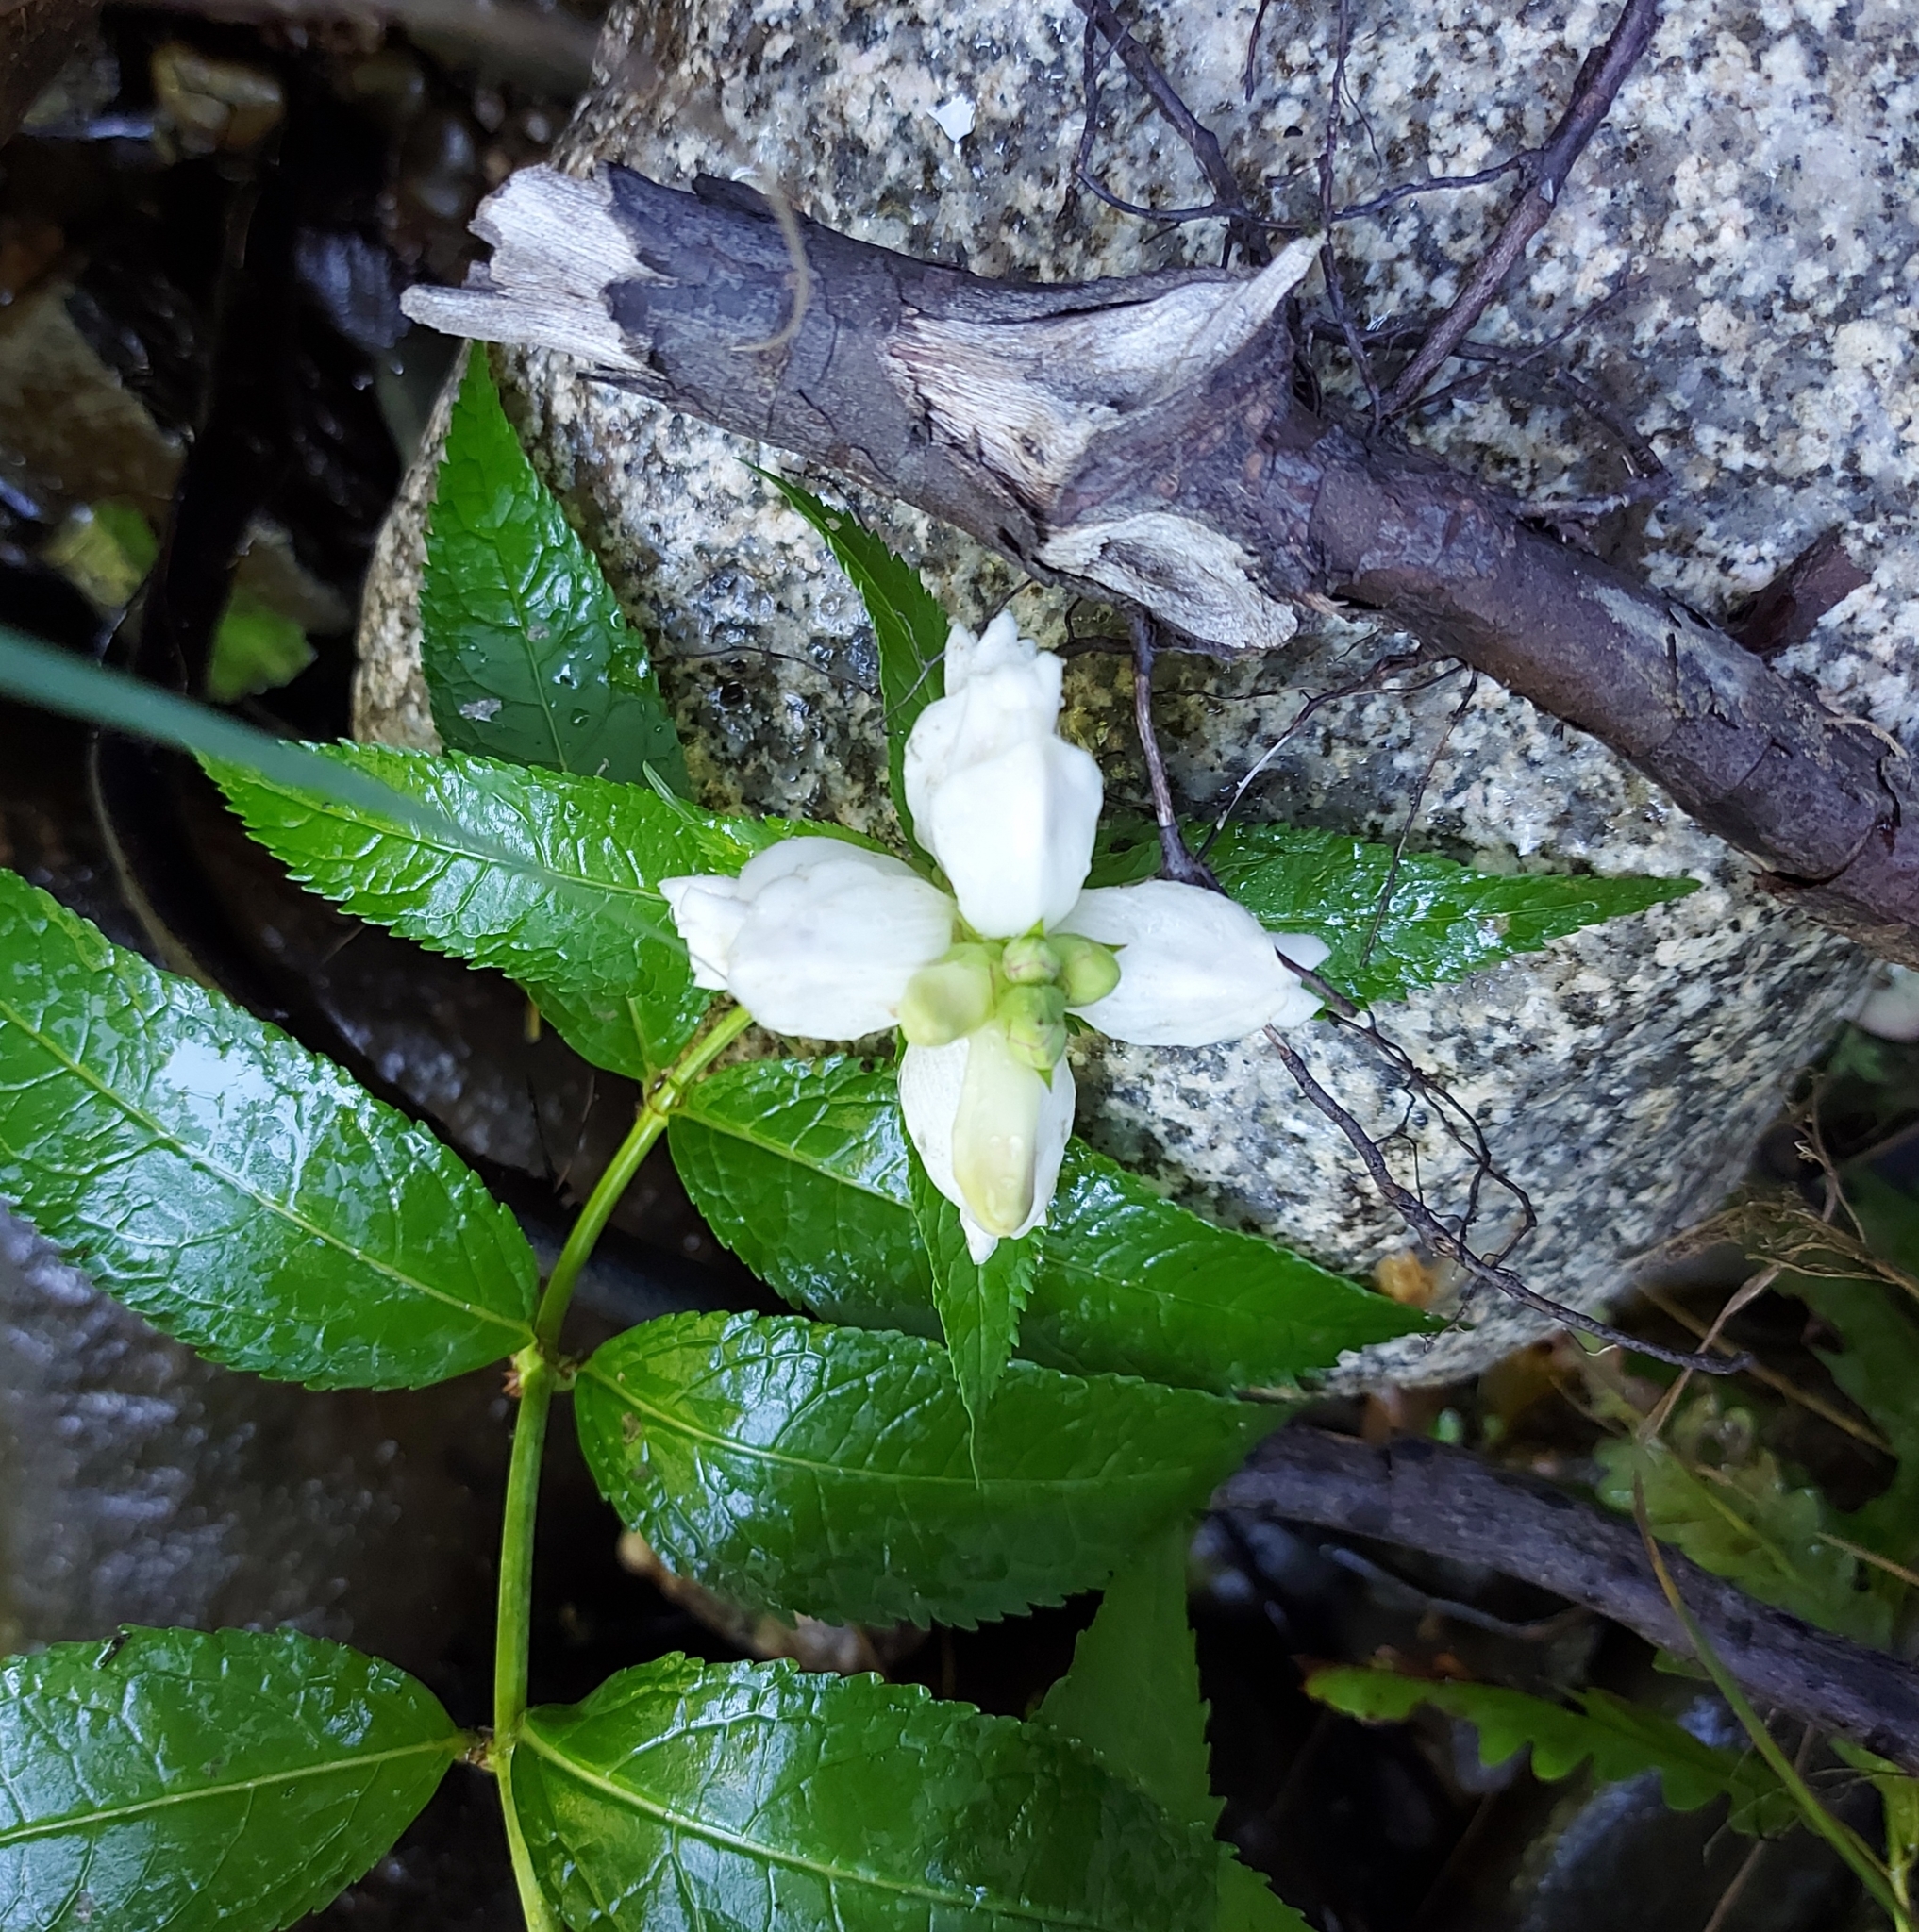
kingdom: Plantae
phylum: Tracheophyta
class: Magnoliopsida
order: Lamiales
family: Plantaginaceae
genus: Chelone
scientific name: Chelone glabra
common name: Snakehead
